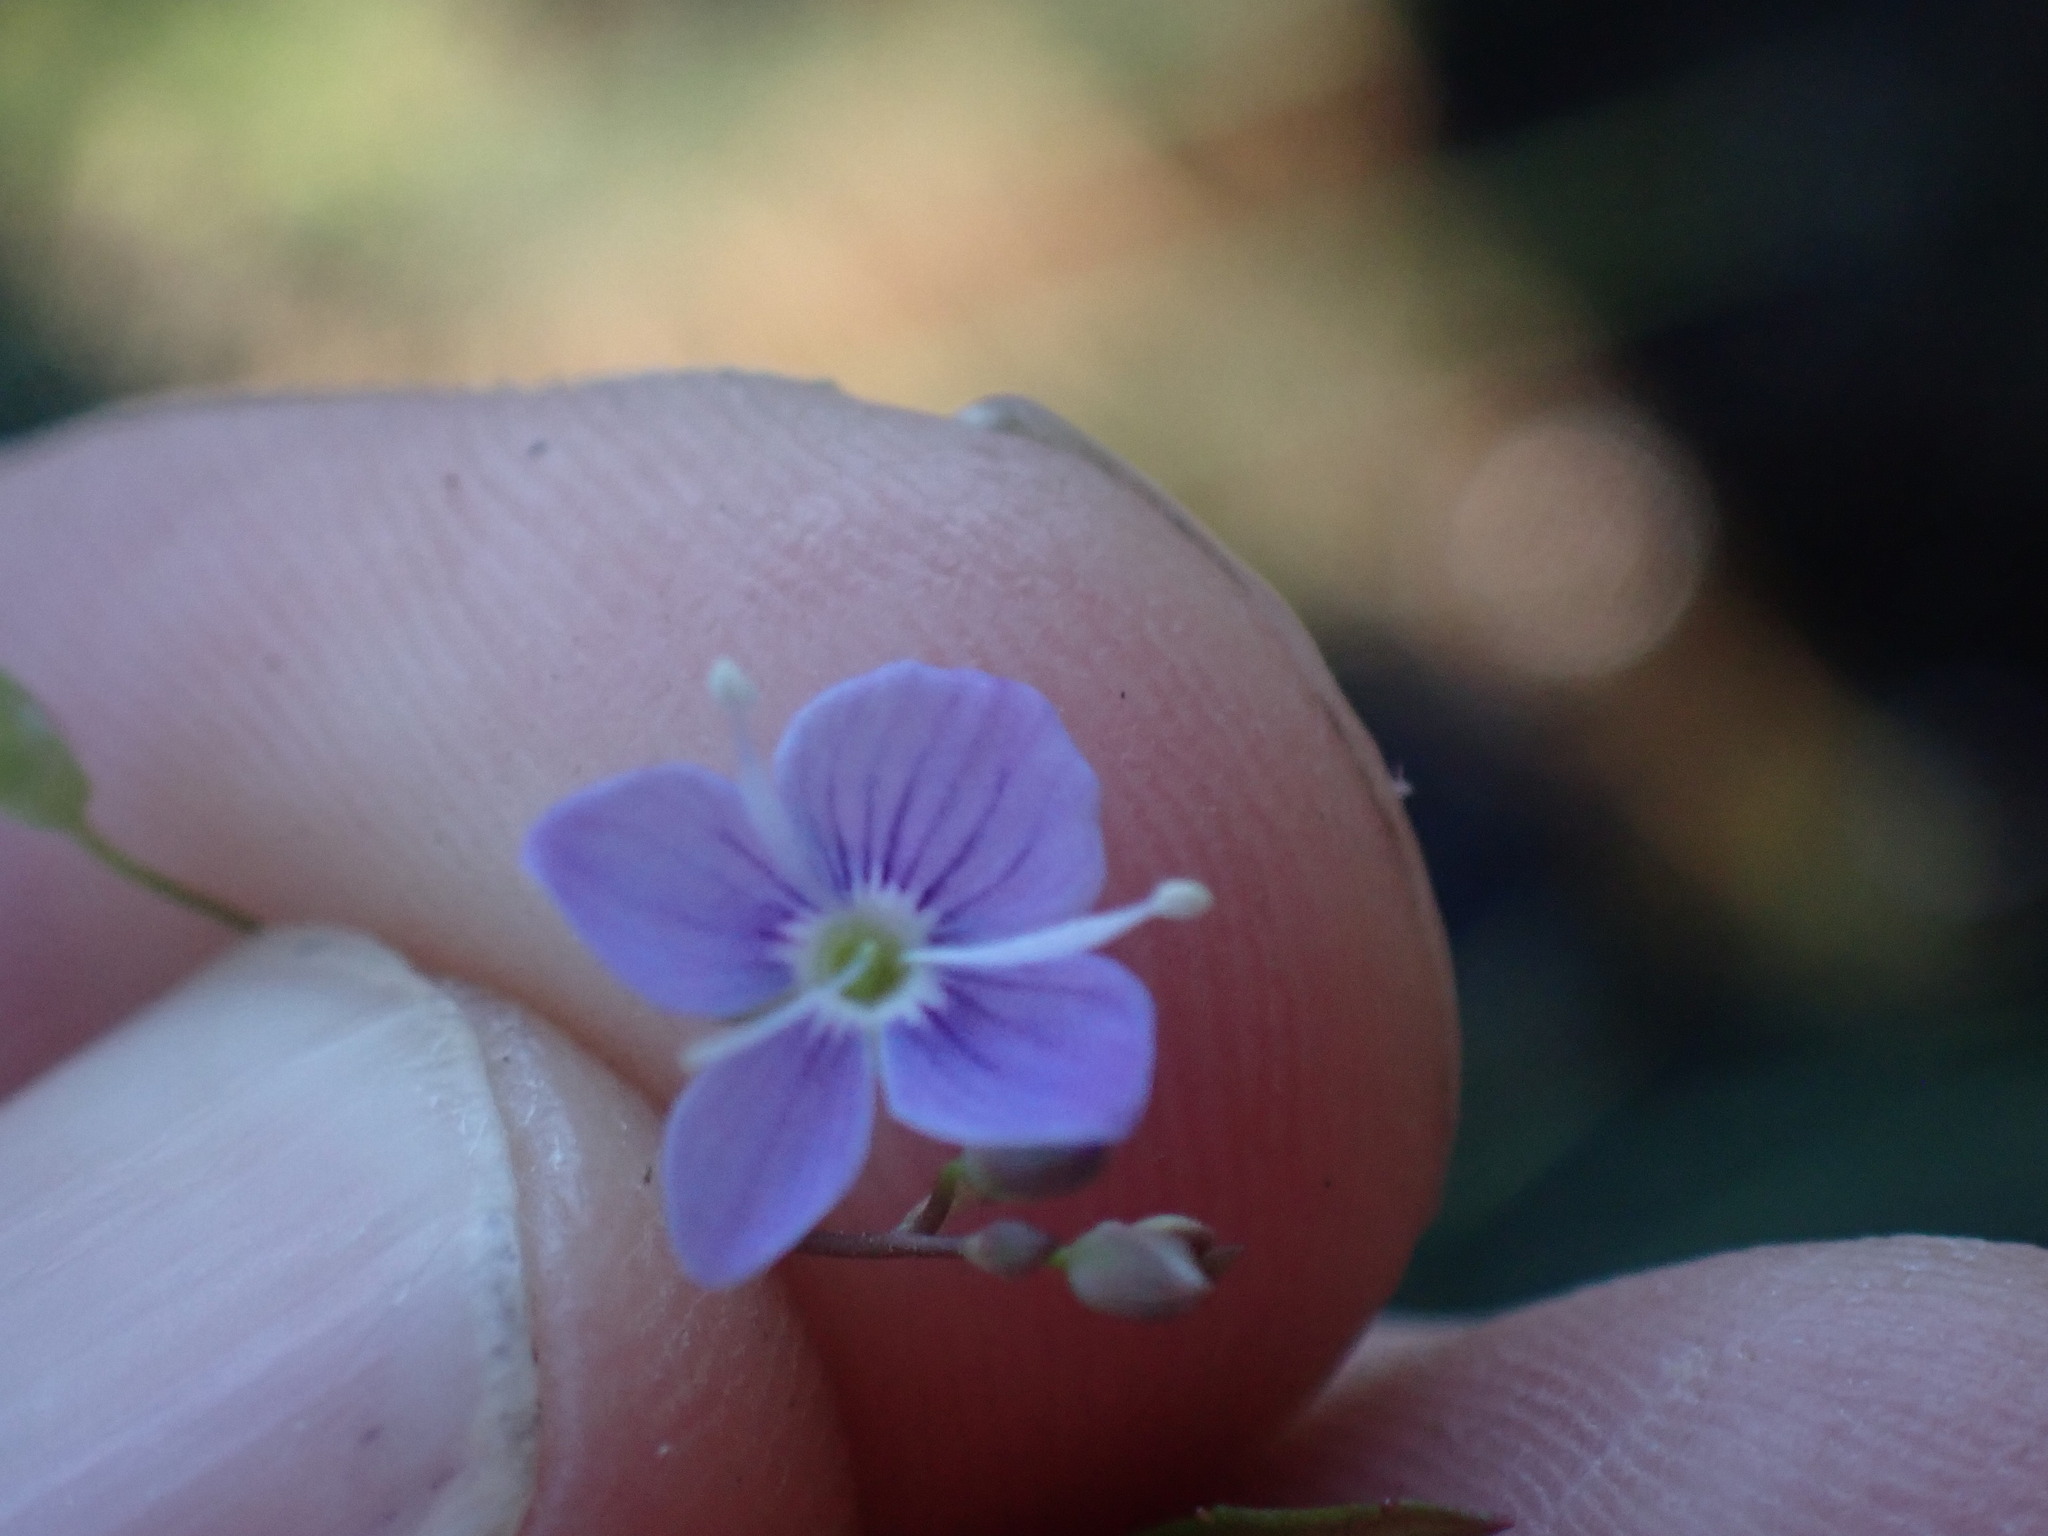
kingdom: Plantae
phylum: Tracheophyta
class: Magnoliopsida
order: Lamiales
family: Plantaginaceae
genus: Veronica
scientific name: Veronica scutellata
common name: Marsh speedwell
